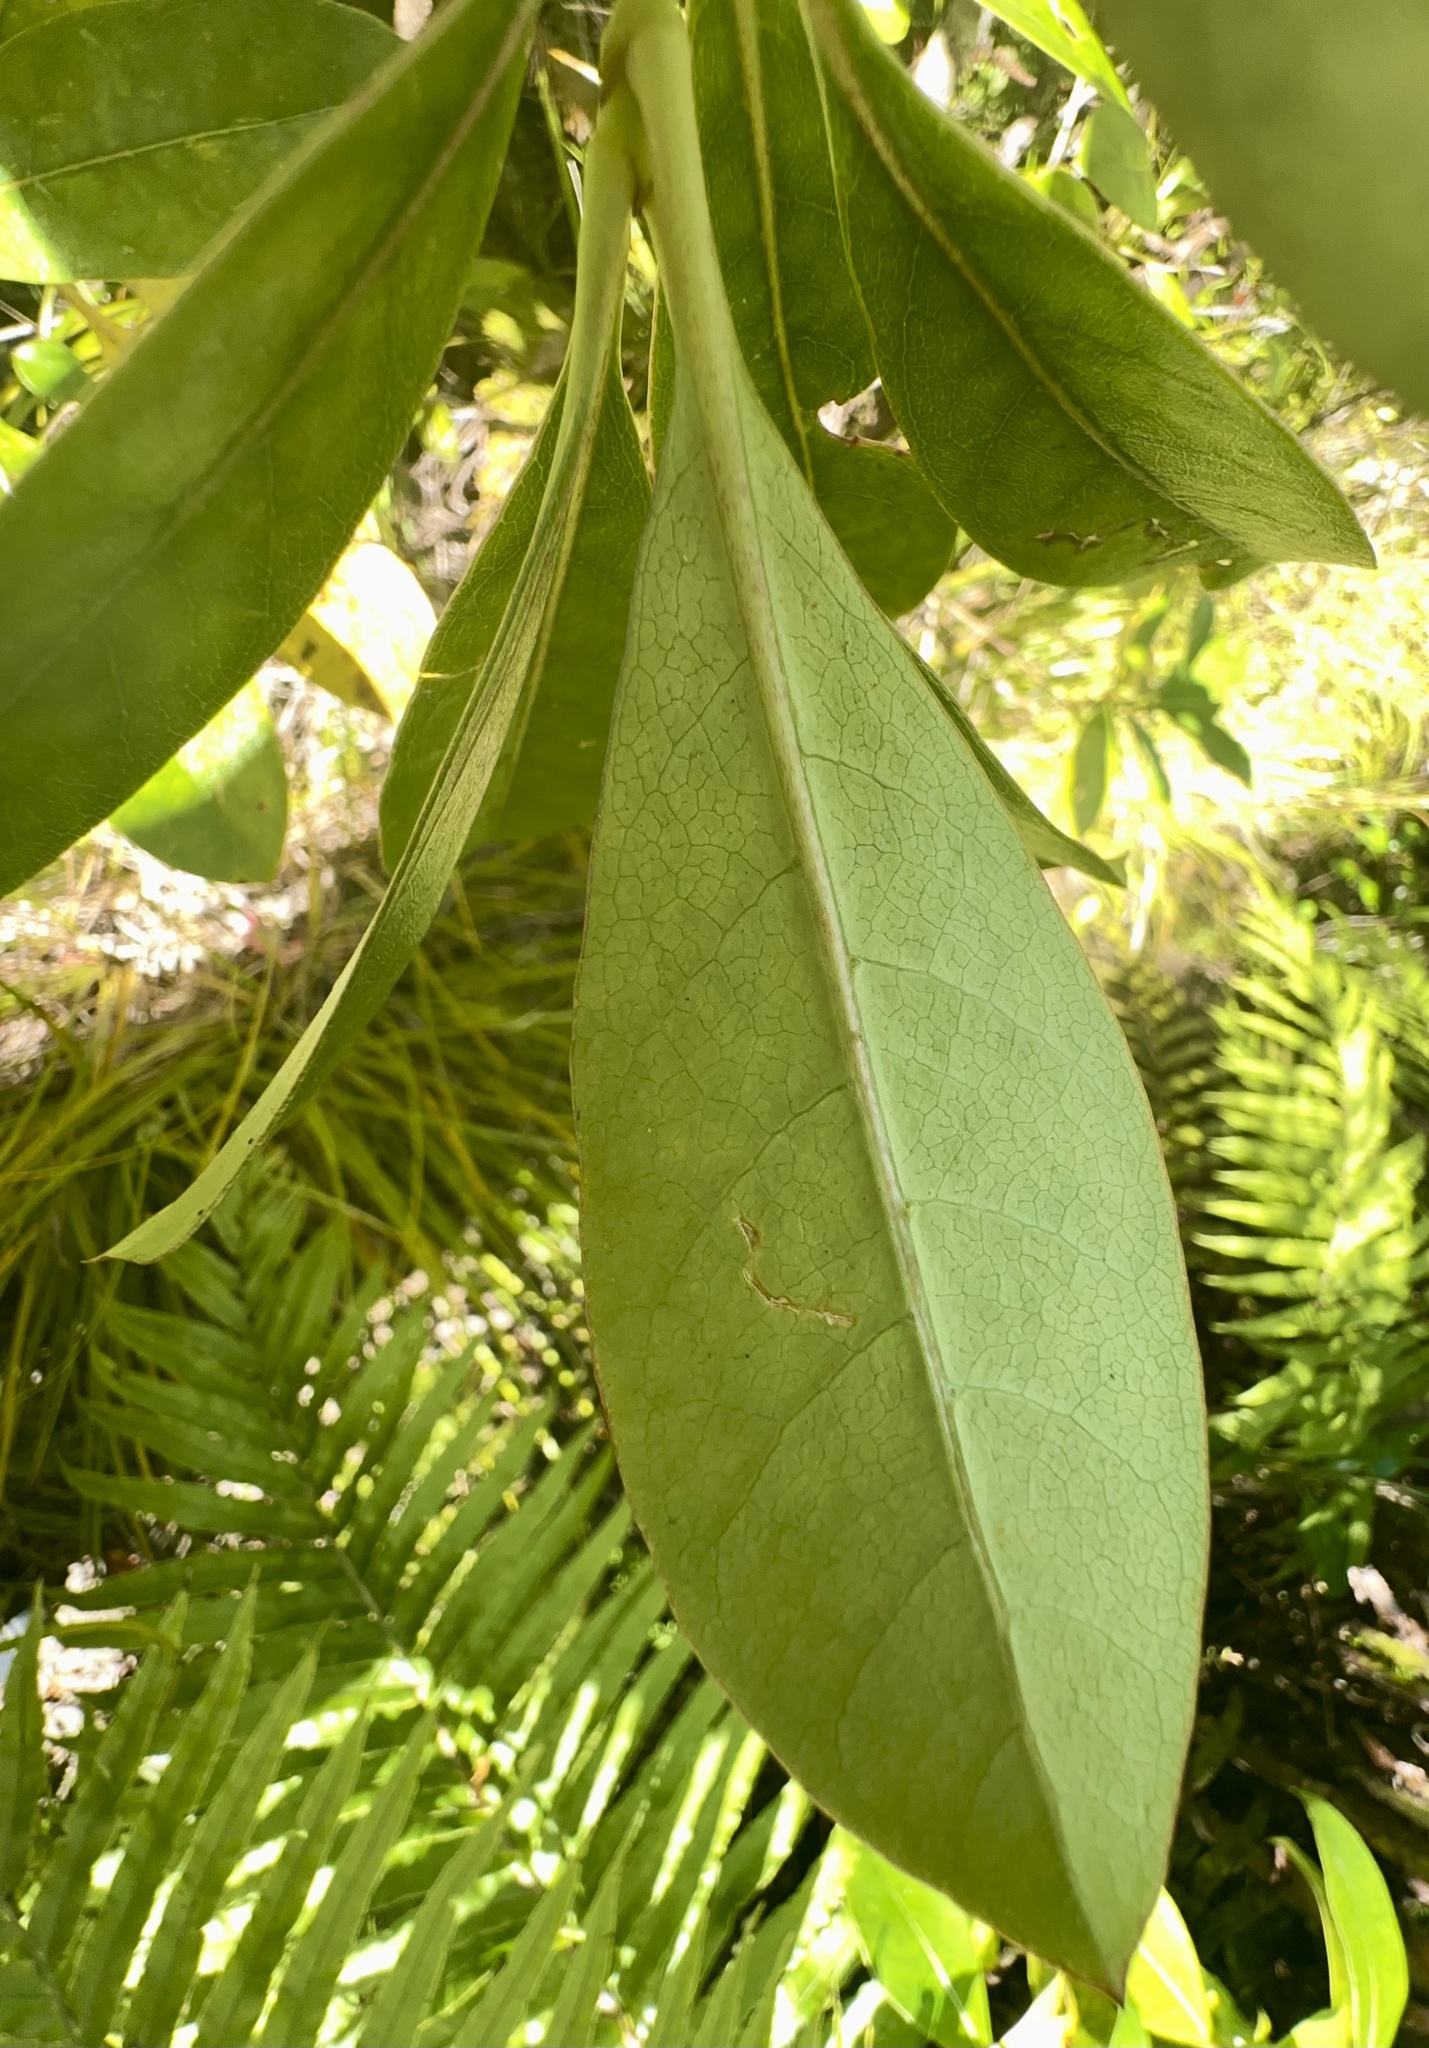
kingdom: Plantae
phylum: Tracheophyta
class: Magnoliopsida
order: Gentianales
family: Rubiaceae
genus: Coprosma
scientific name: Coprosma lucida
